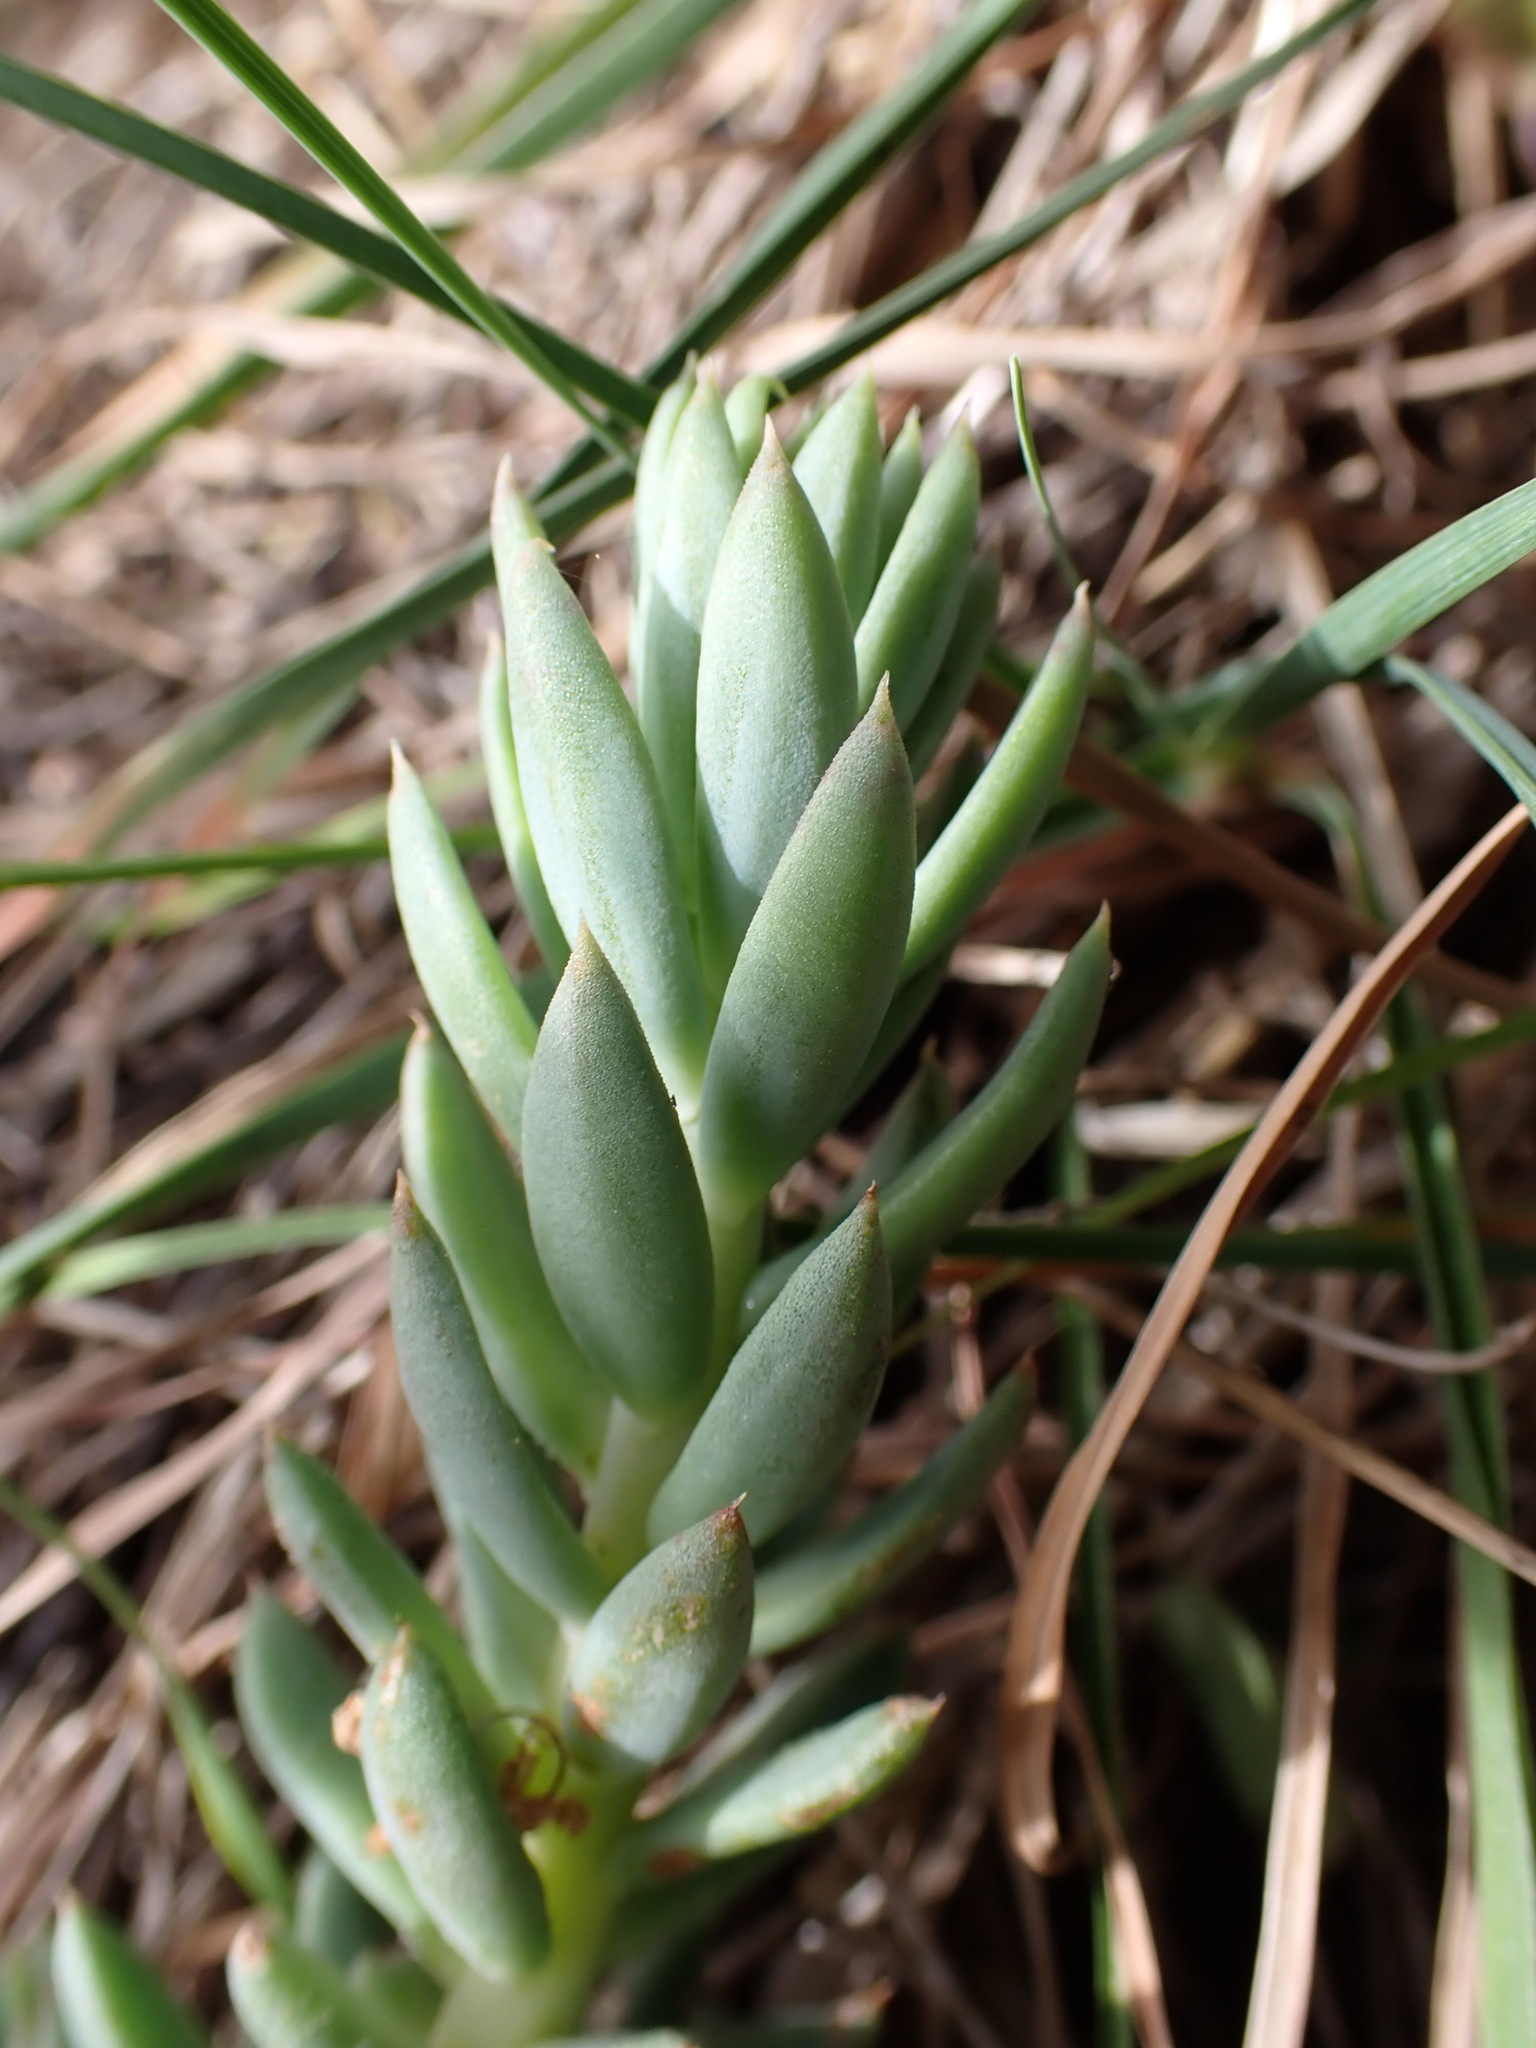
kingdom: Plantae
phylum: Tracheophyta
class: Magnoliopsida
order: Saxifragales
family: Crassulaceae
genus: Petrosedum
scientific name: Petrosedum sediforme
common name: Pale stonecrop
